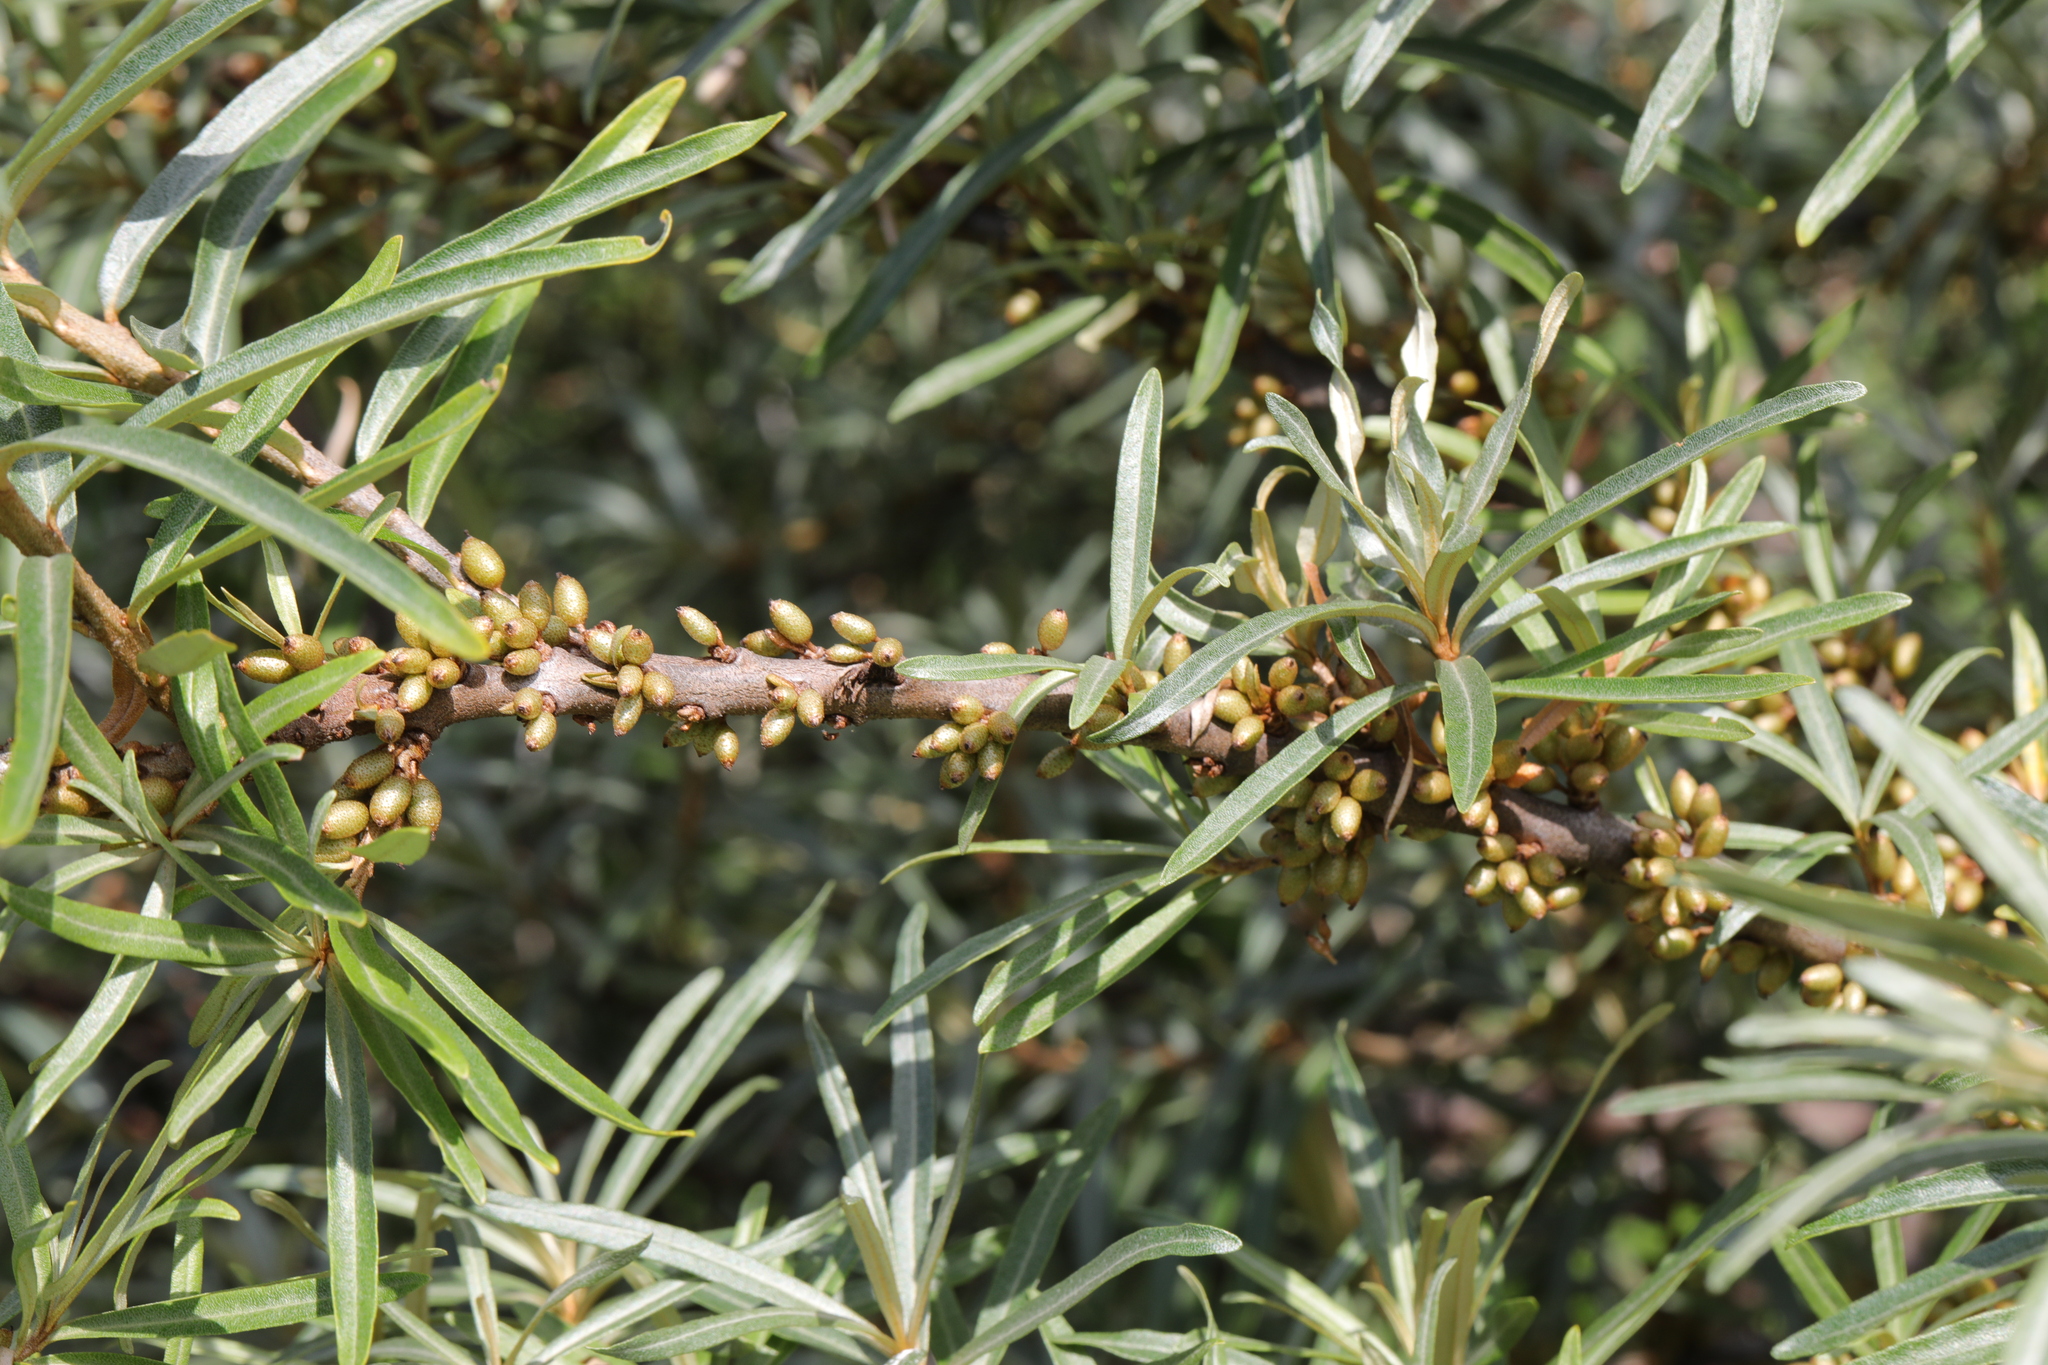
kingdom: Plantae
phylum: Tracheophyta
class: Magnoliopsida
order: Rosales
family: Elaeagnaceae
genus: Hippophae
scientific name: Hippophae rhamnoides
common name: Sea-buckthorn
